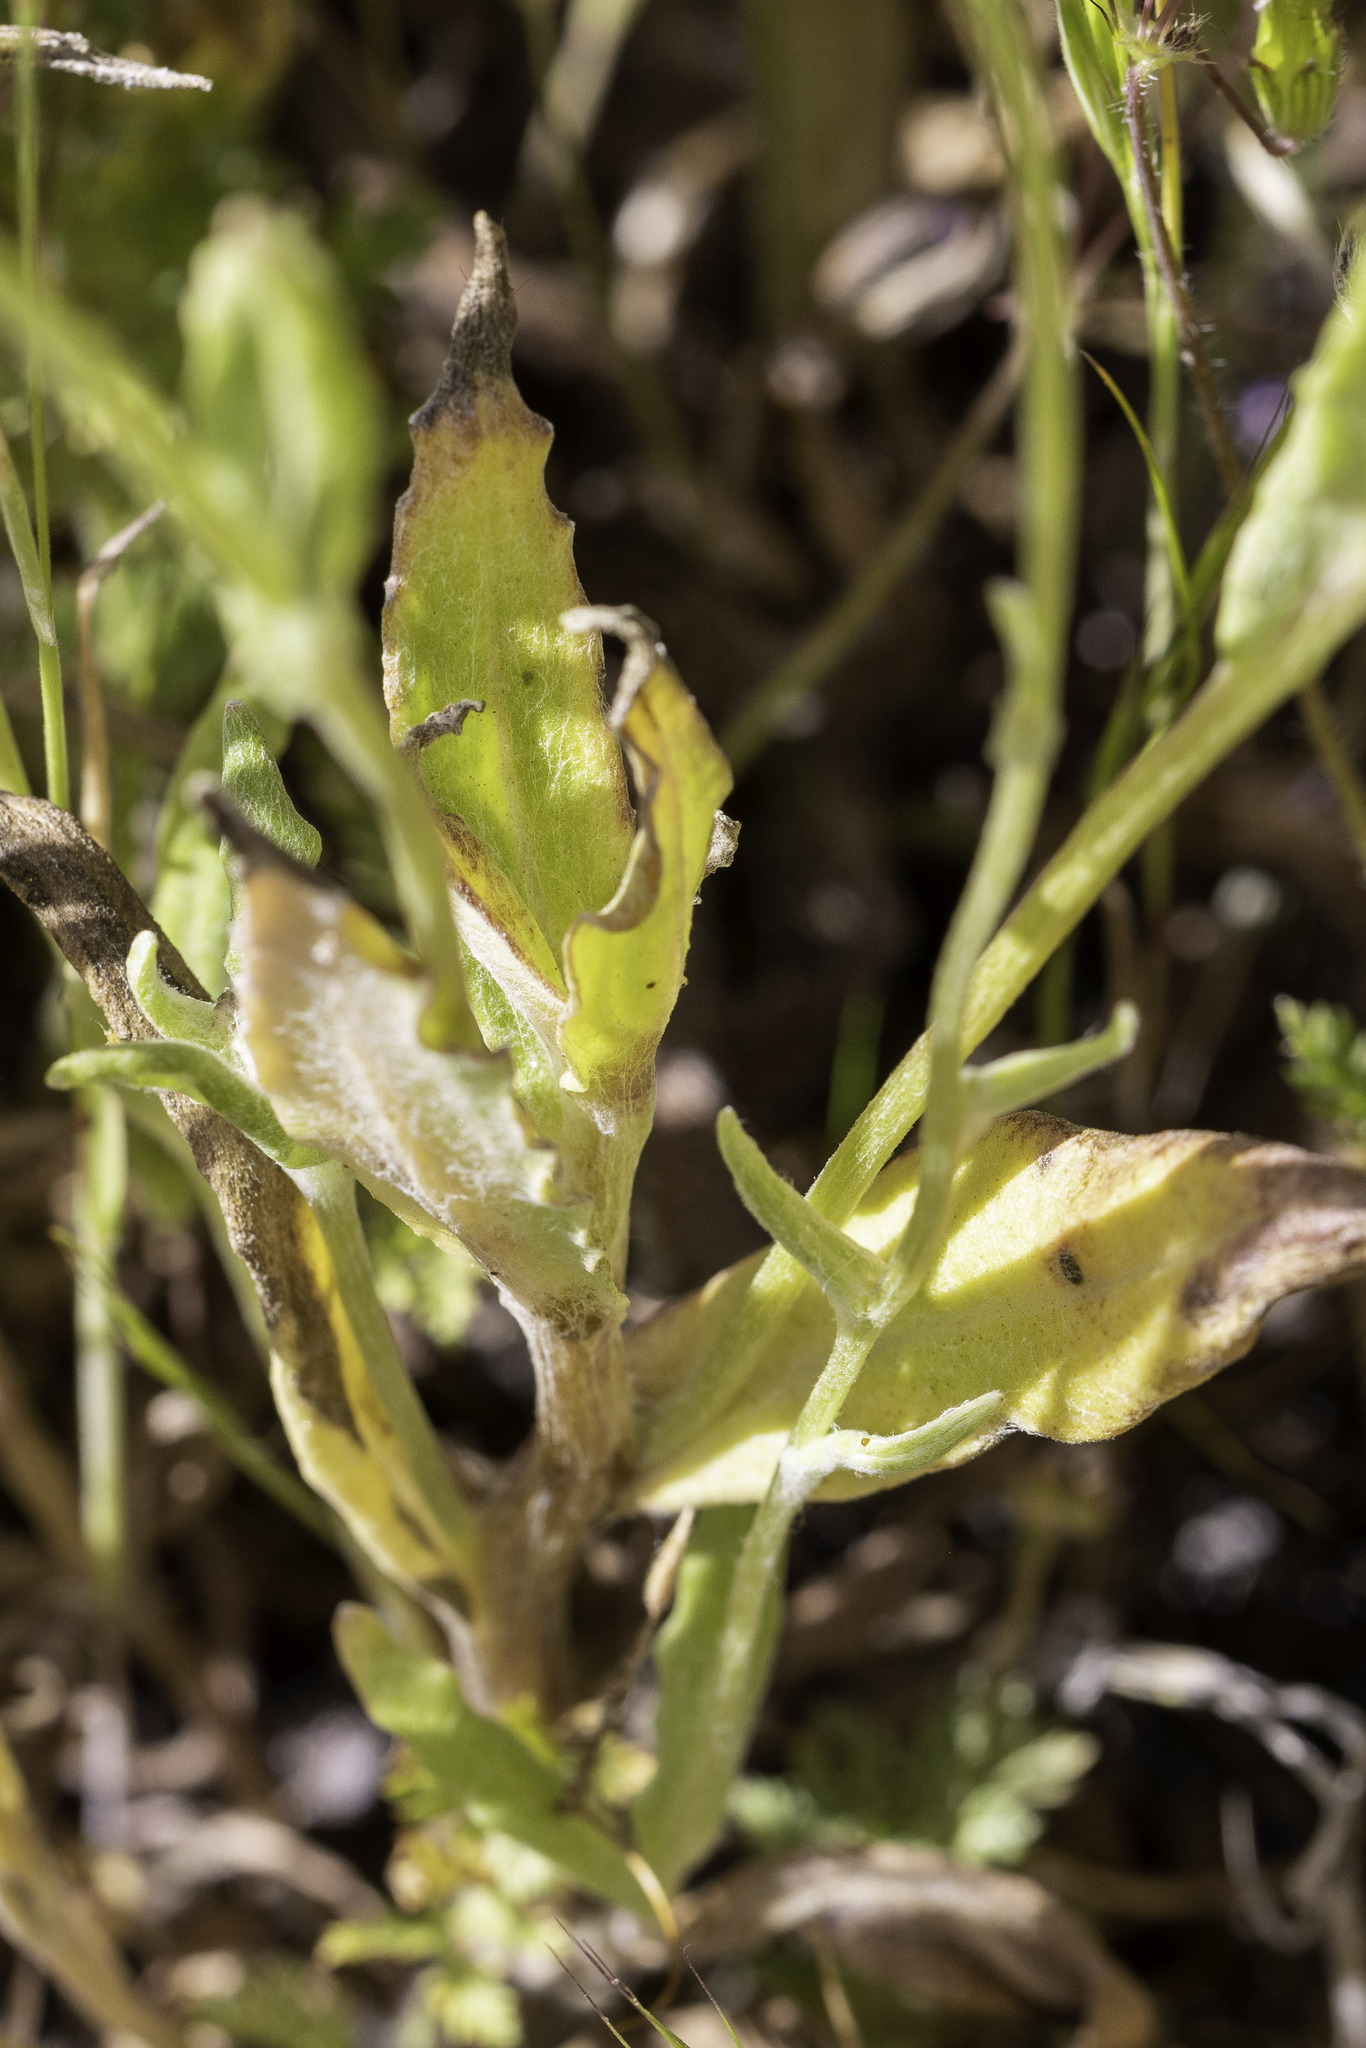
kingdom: Plantae
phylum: Tracheophyta
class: Magnoliopsida
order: Asterales
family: Asteraceae
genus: Monolopia
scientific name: Monolopia lanceolata
